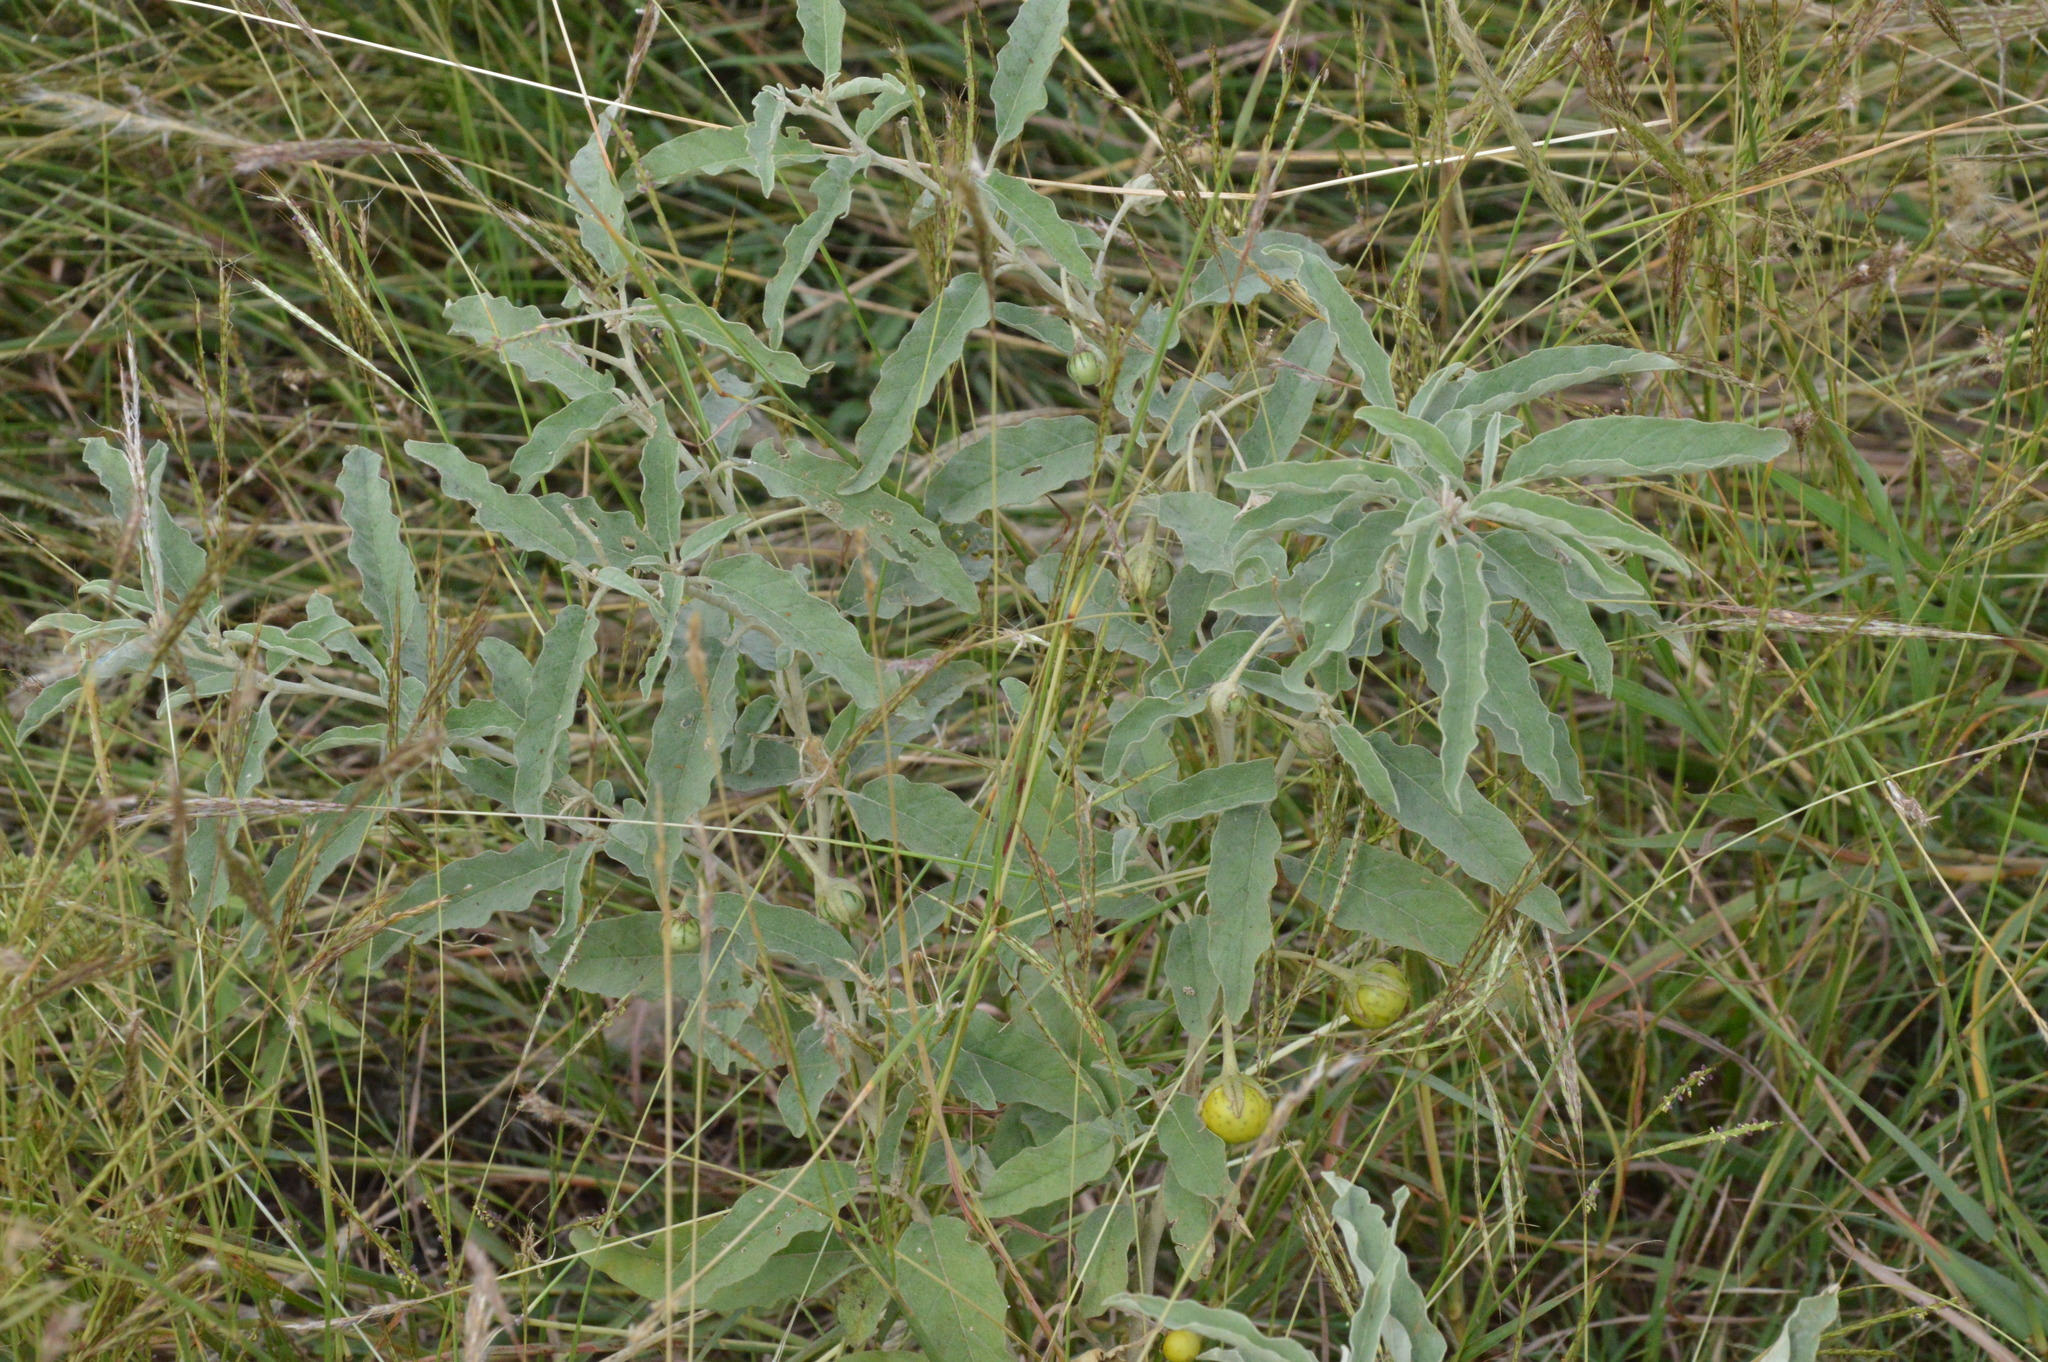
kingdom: Plantae
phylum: Tracheophyta
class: Magnoliopsida
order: Solanales
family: Solanaceae
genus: Solanum
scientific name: Solanum elaeagnifolium
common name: Silverleaf nightshade
